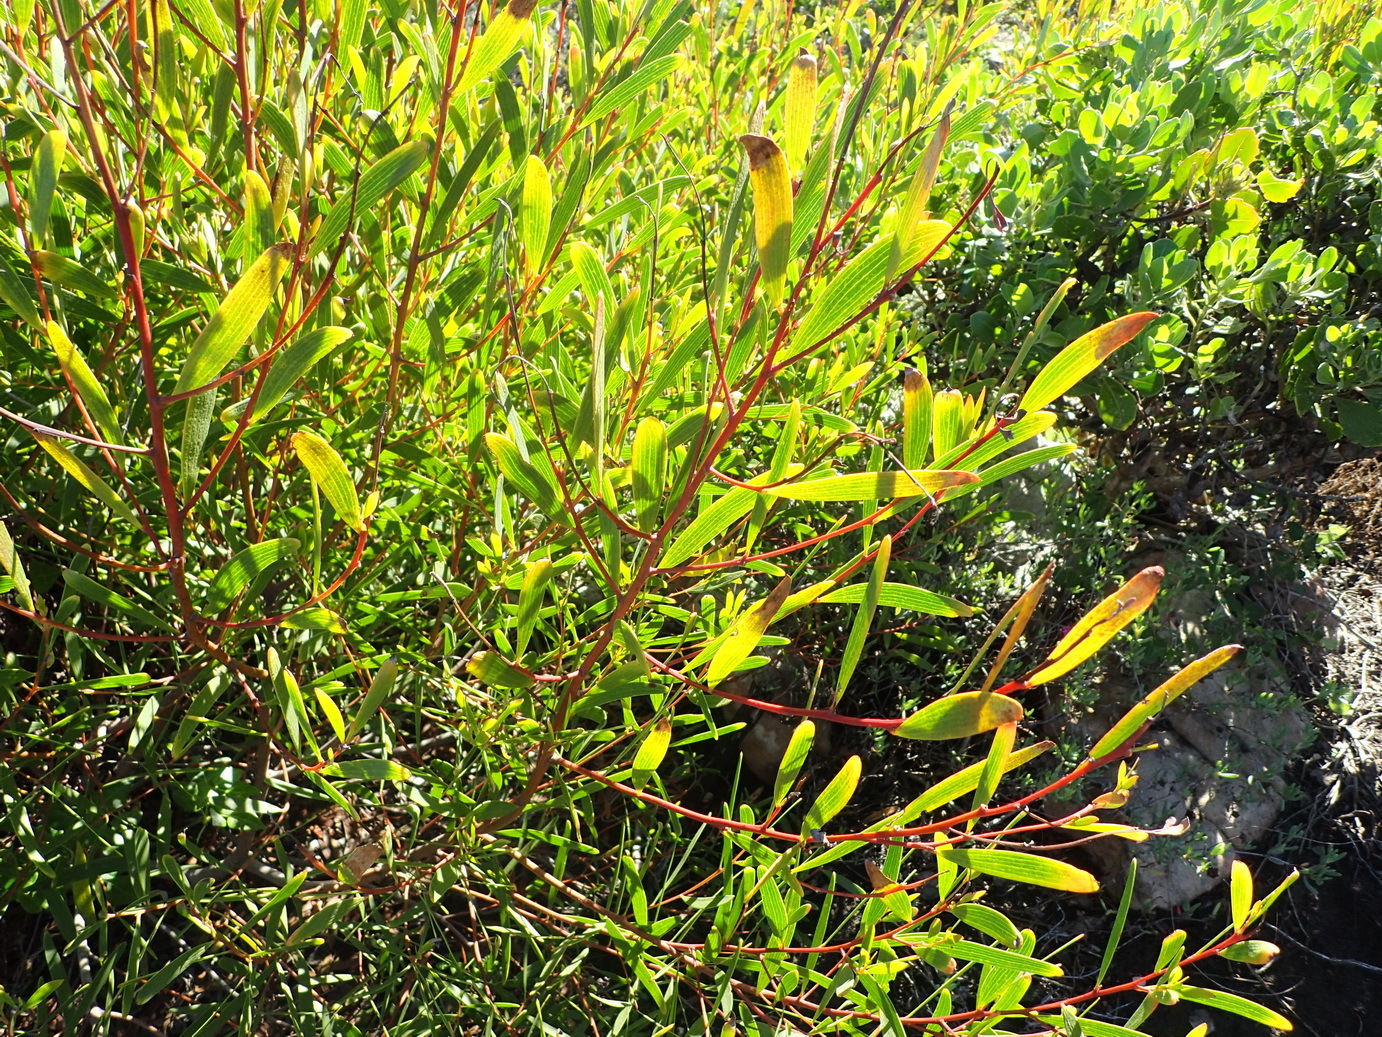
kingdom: Plantae
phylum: Tracheophyta
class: Magnoliopsida
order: Fabales
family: Fabaceae
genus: Acacia
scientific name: Acacia cyclops
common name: Coastal wattle
